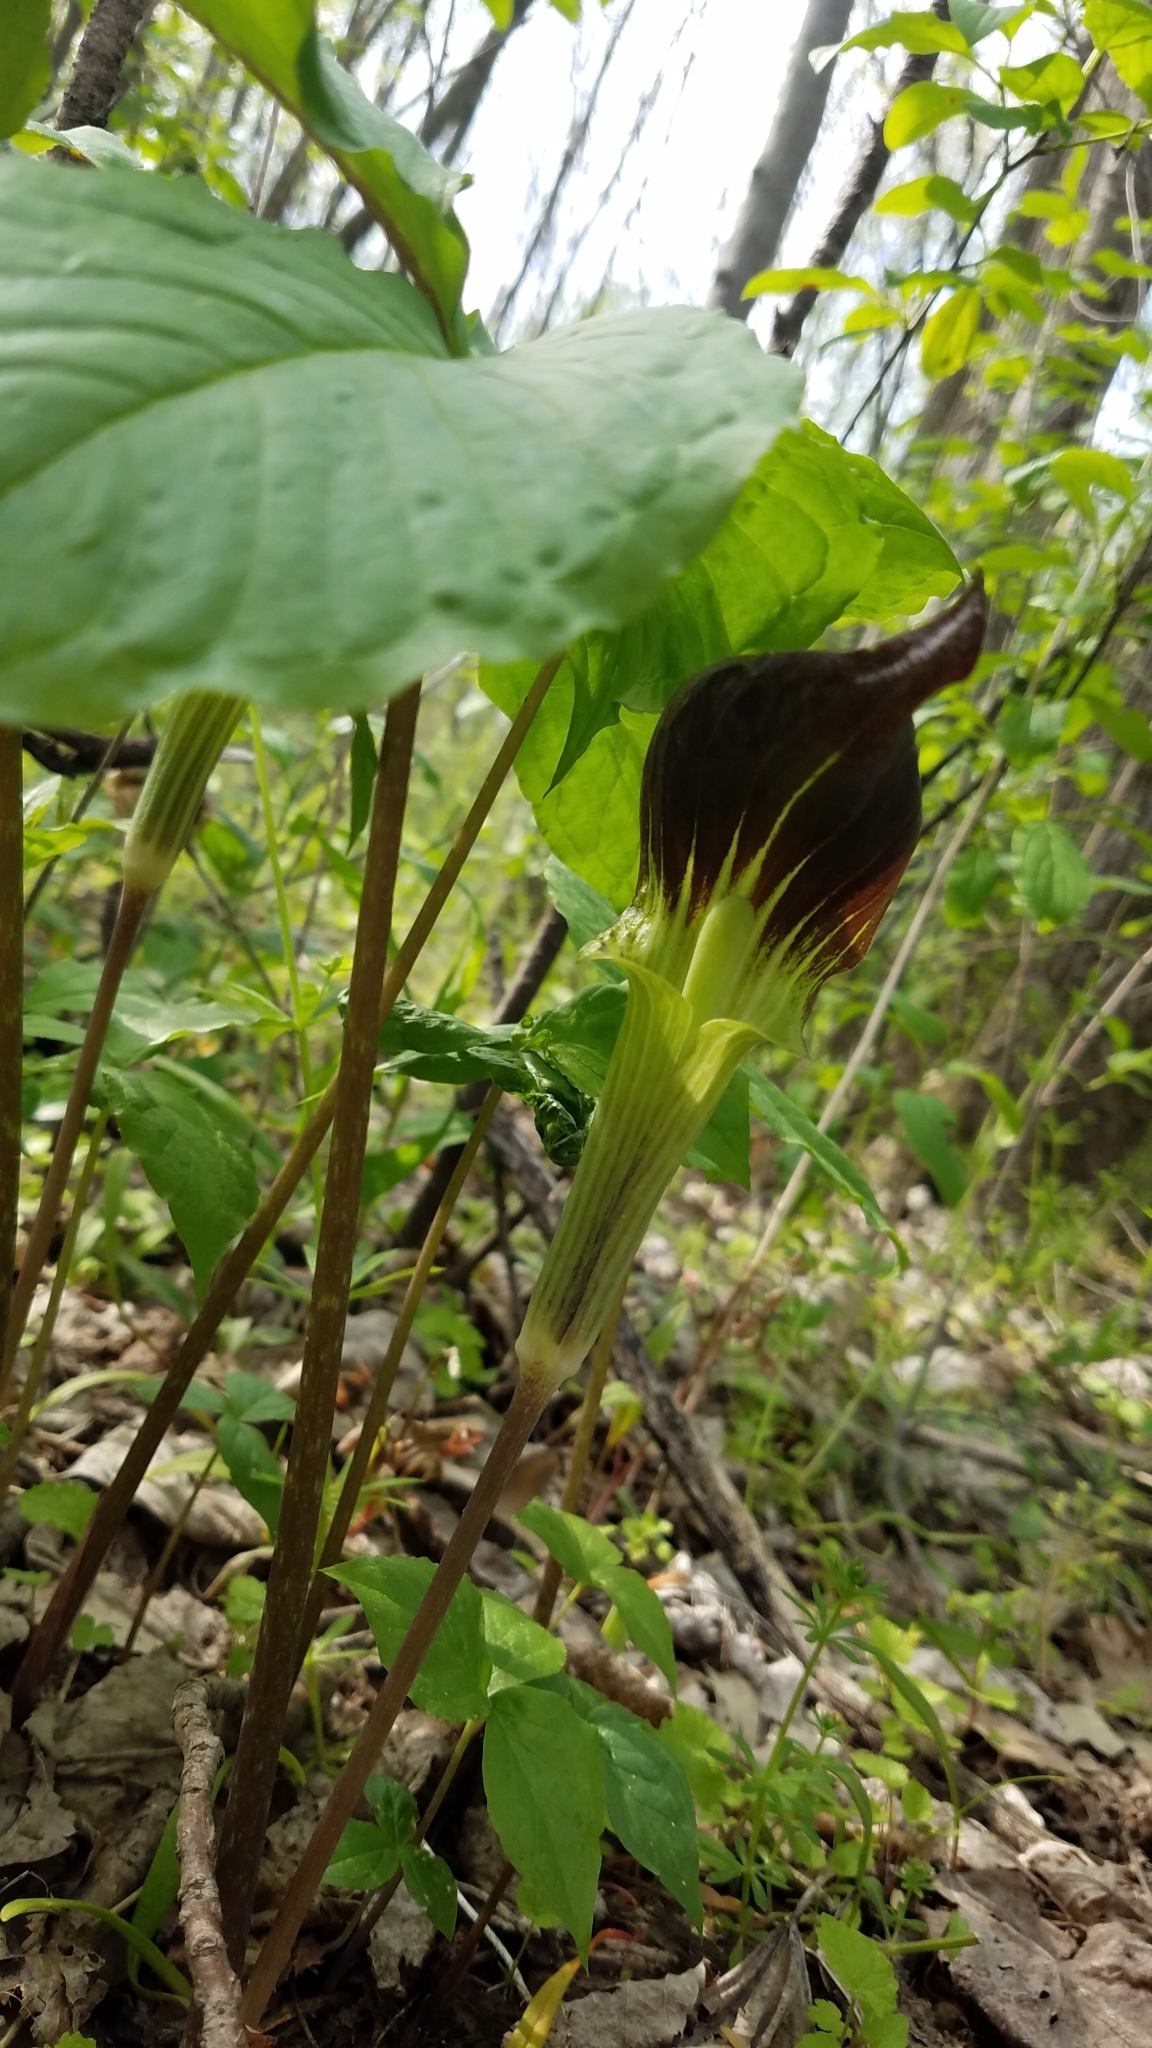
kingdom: Plantae
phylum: Tracheophyta
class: Liliopsida
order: Alismatales
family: Araceae
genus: Arisaema
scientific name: Arisaema triphyllum
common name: Jack-in-the-pulpit
